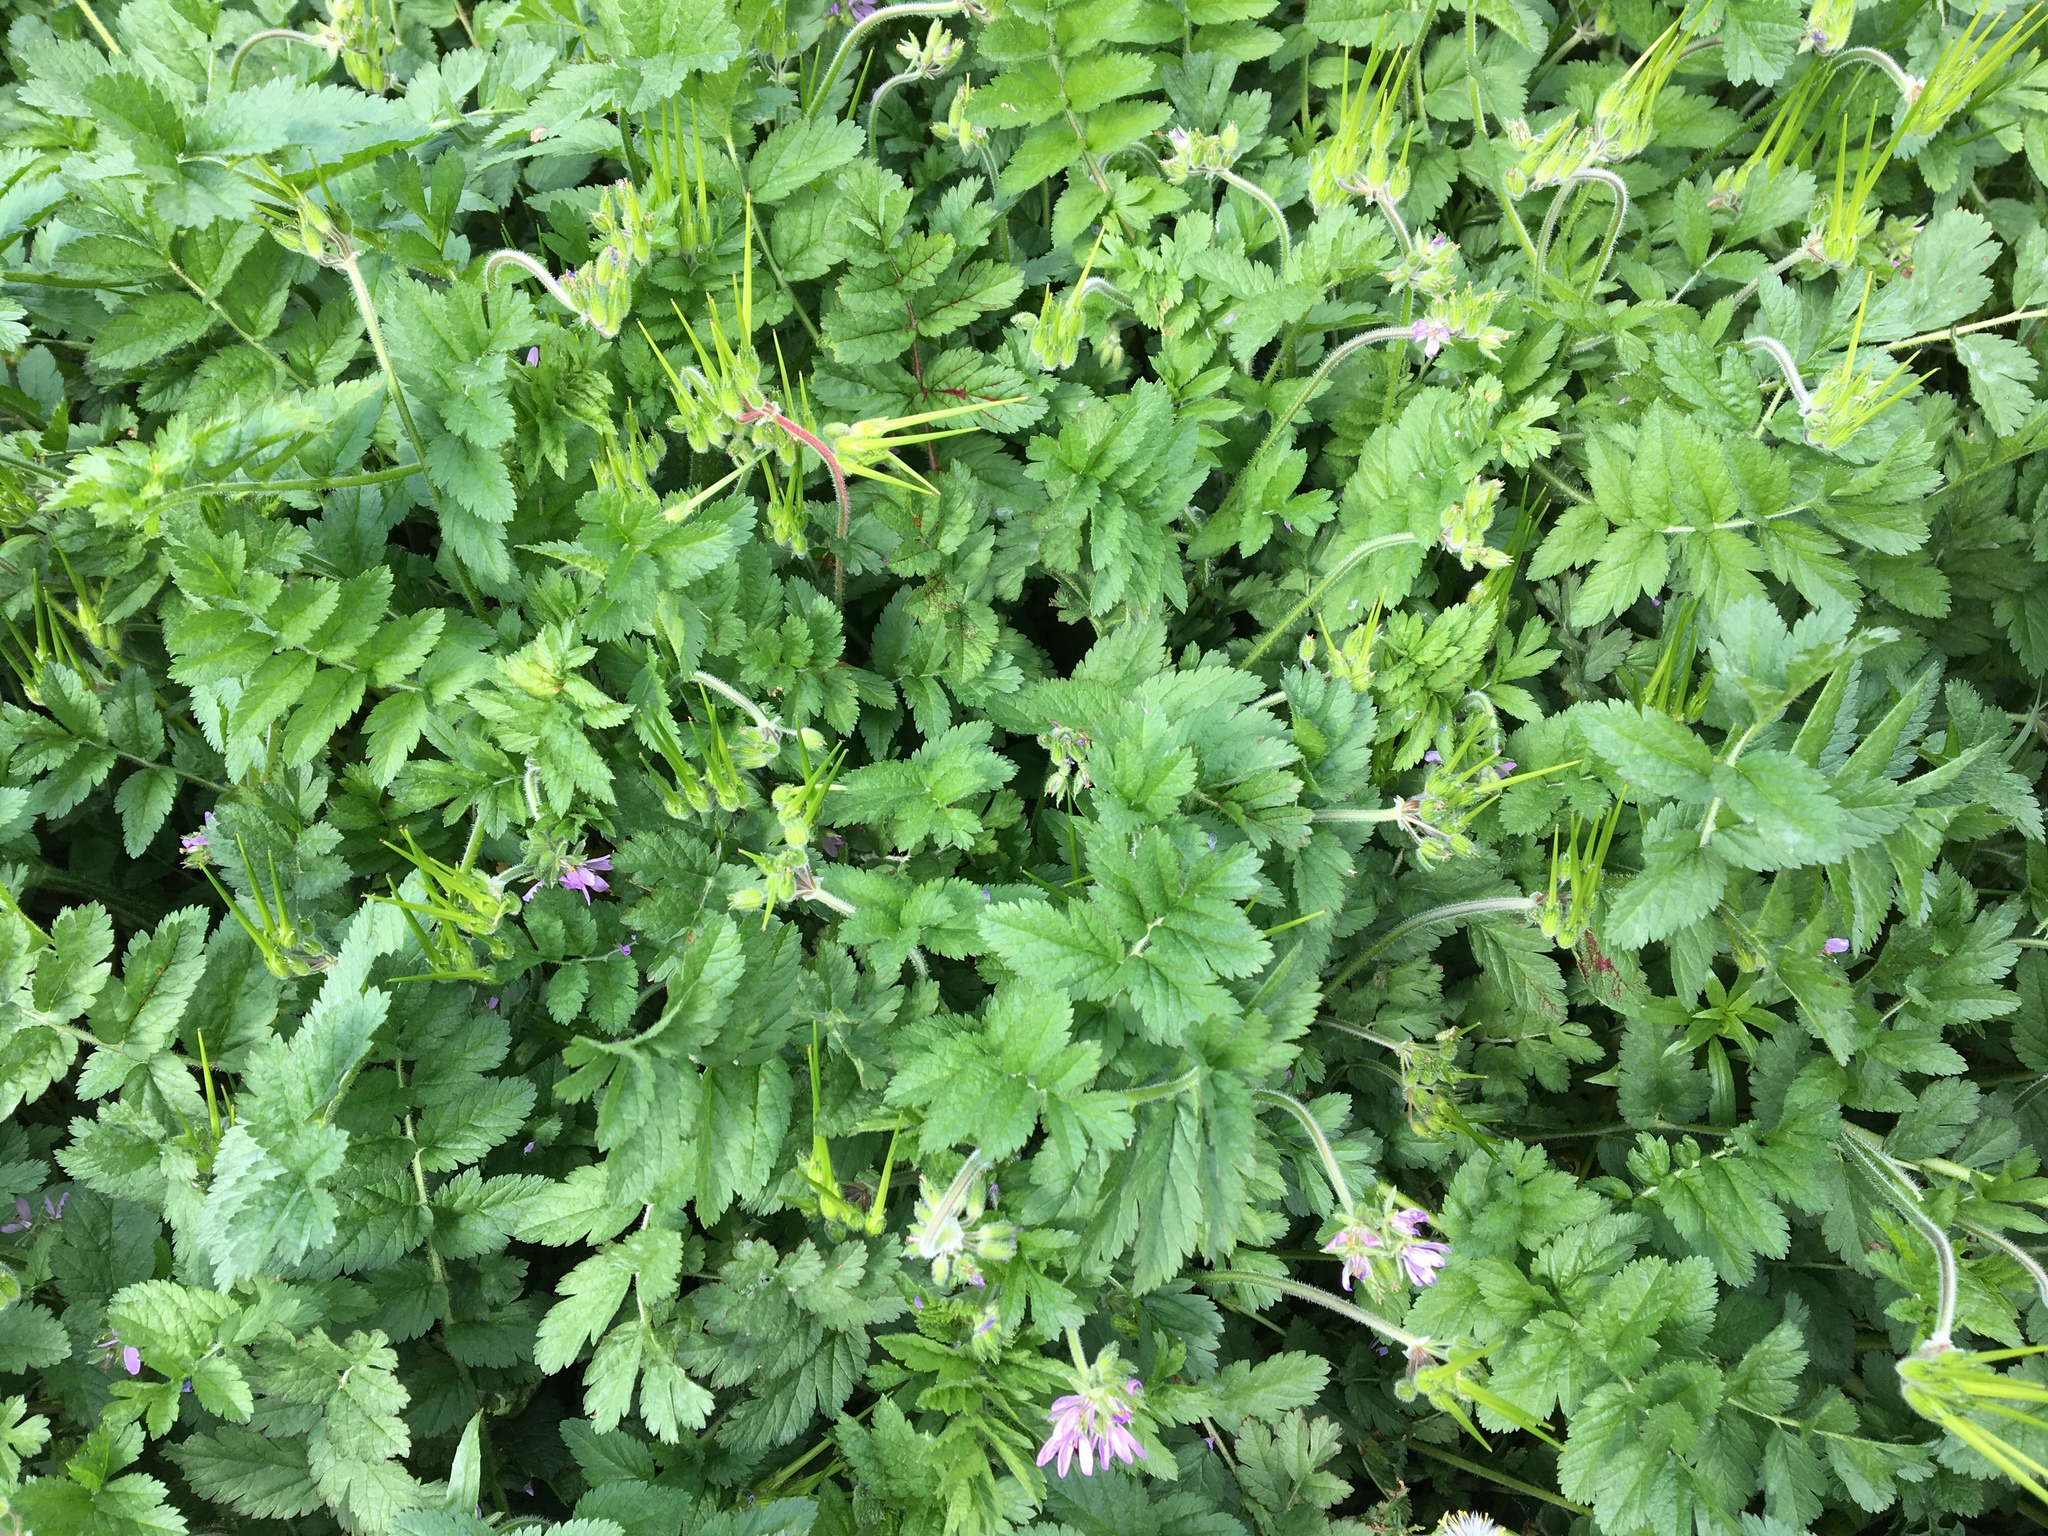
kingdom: Plantae
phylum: Tracheophyta
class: Magnoliopsida
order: Geraniales
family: Geraniaceae
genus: Erodium
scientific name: Erodium moschatum
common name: Musk stork's-bill
